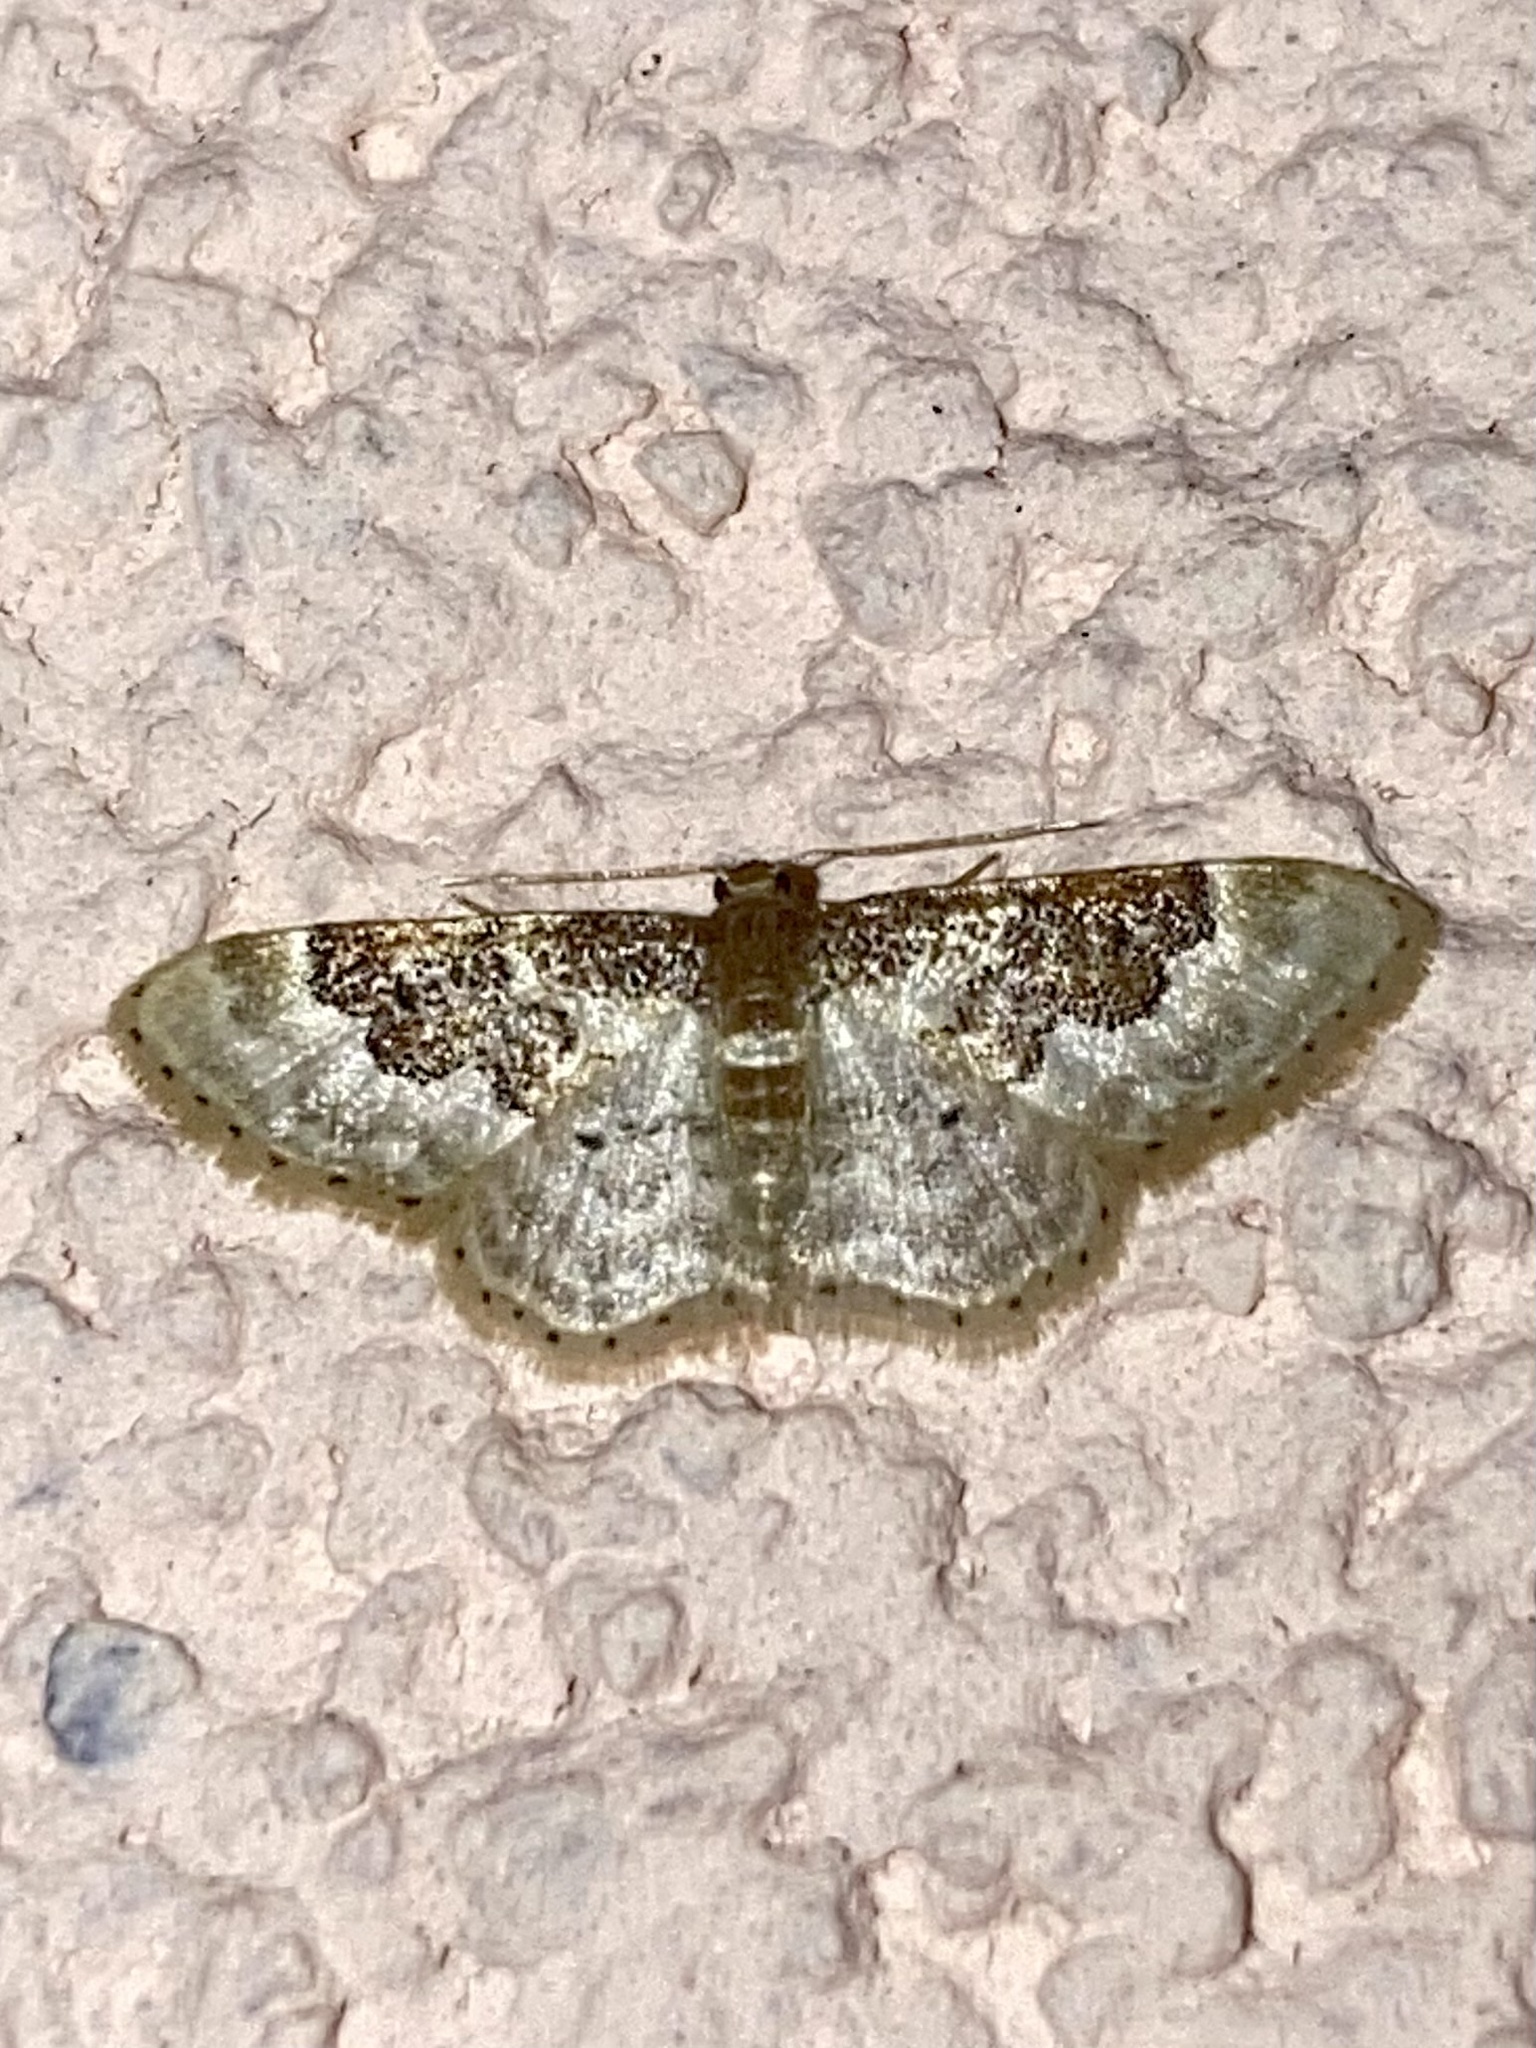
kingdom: Animalia
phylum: Arthropoda
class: Insecta
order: Lepidoptera
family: Geometridae
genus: Idaea
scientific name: Idaea rusticata
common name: Least carpet
